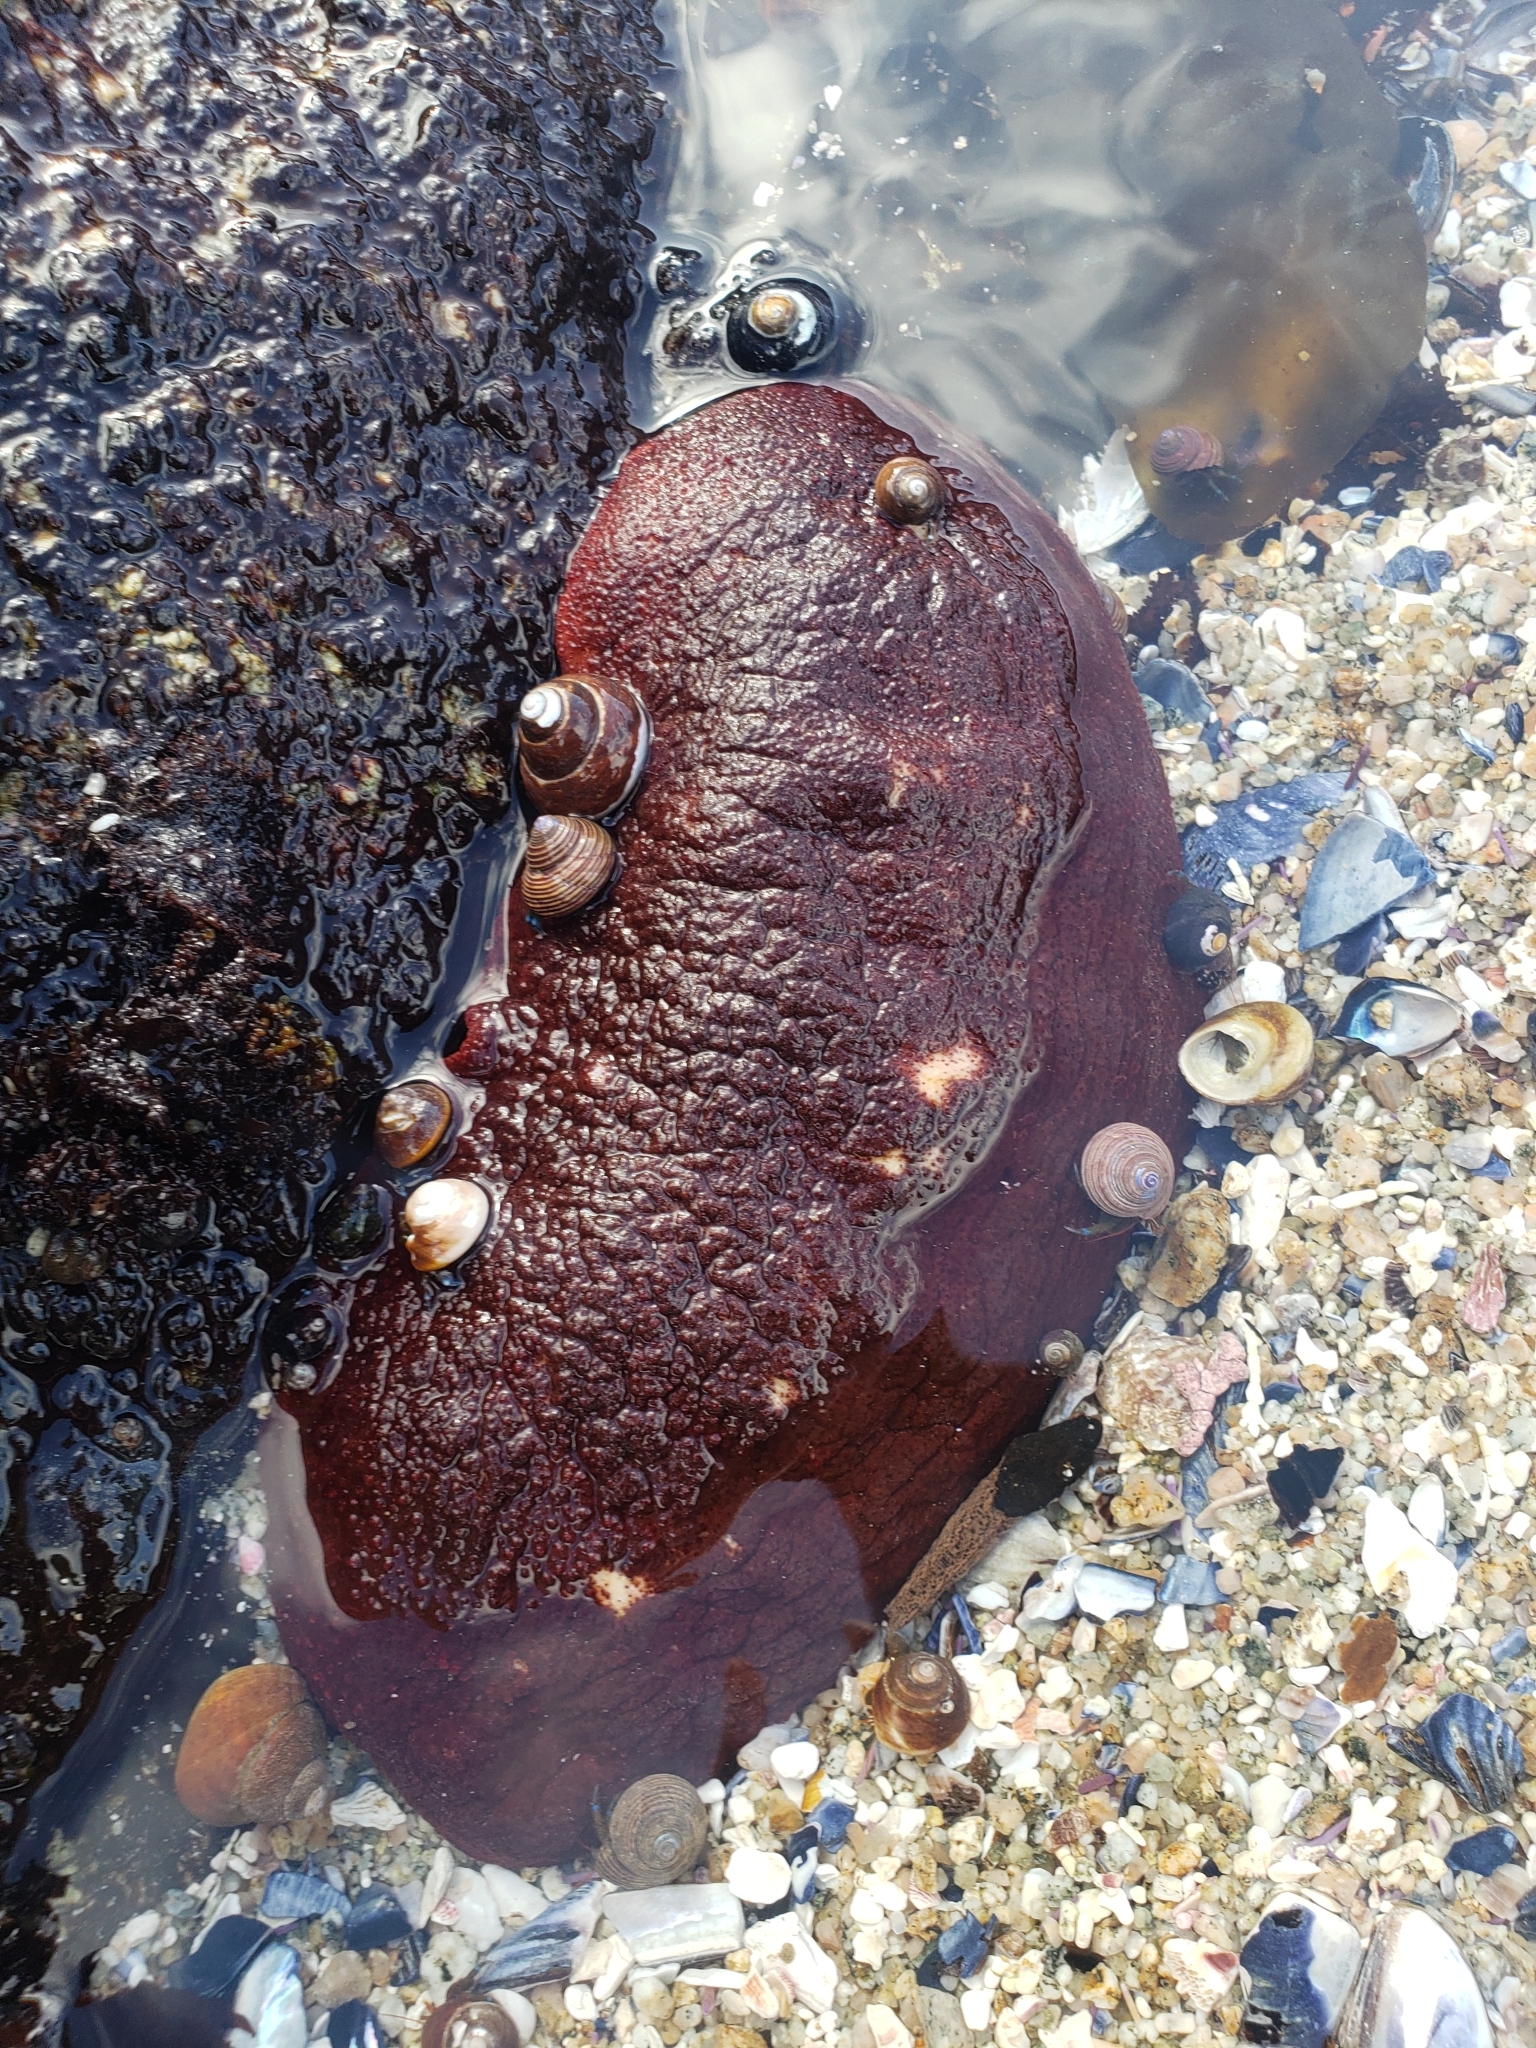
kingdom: Animalia
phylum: Mollusca
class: Polyplacophora
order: Chitonida
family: Acanthochitonidae
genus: Cryptochiton
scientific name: Cryptochiton stelleri
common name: Giant pacific chiton
